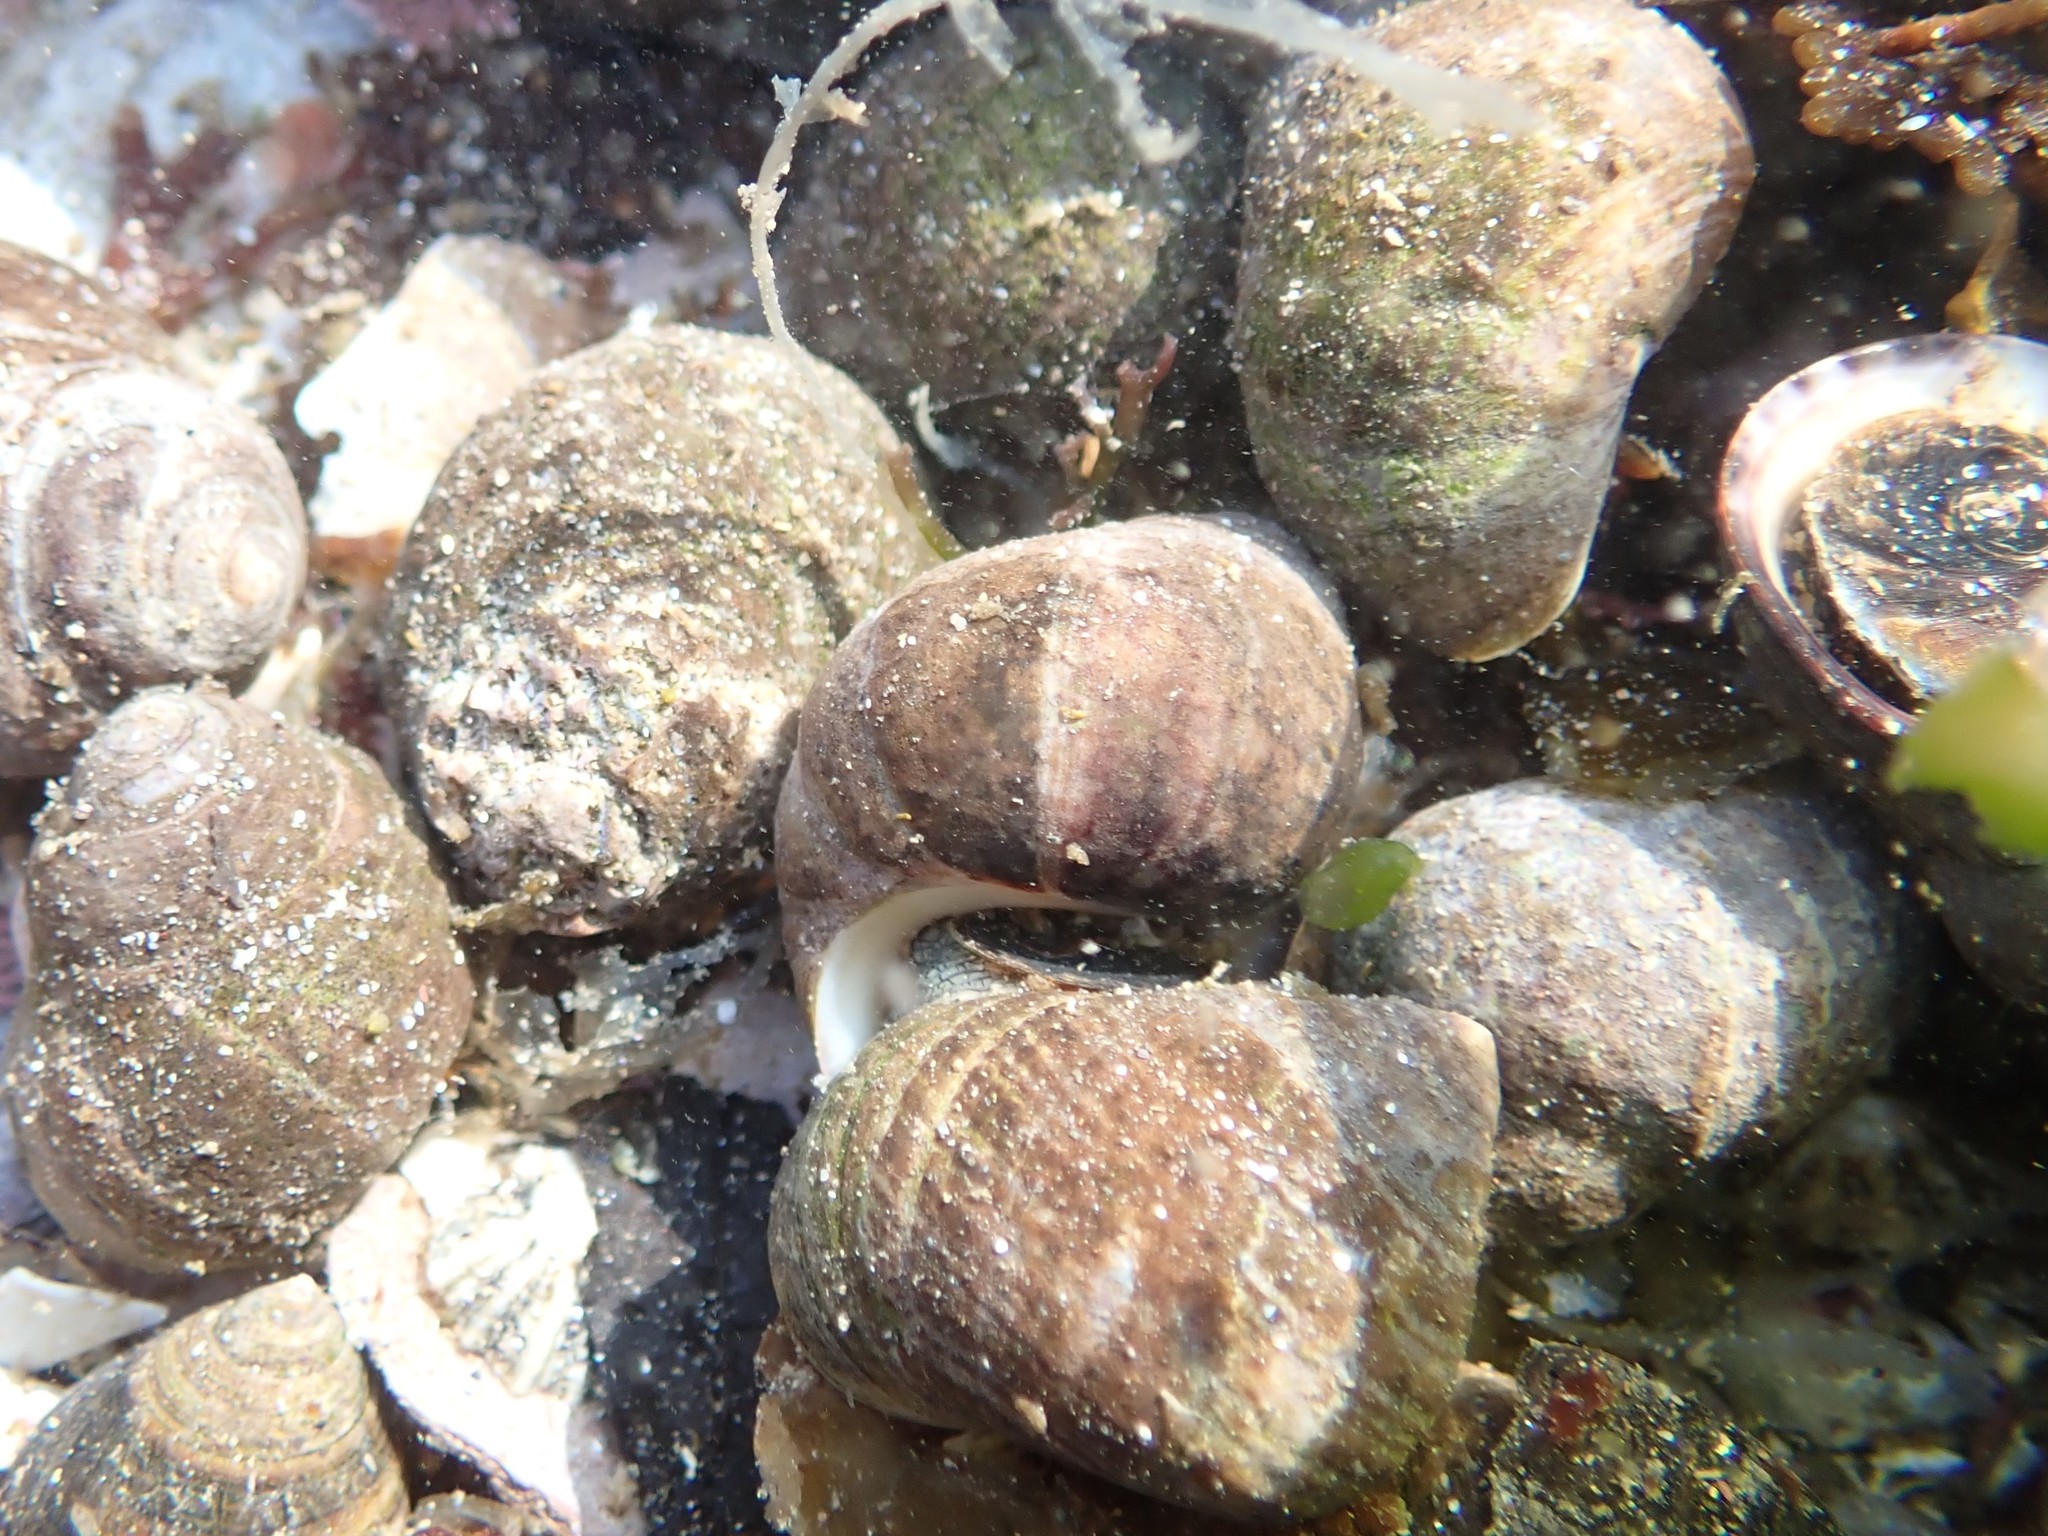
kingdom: Animalia
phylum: Mollusca
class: Gastropoda
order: Littorinimorpha
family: Littorinidae
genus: Littorina
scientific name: Littorina littorea
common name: Common periwinkle
